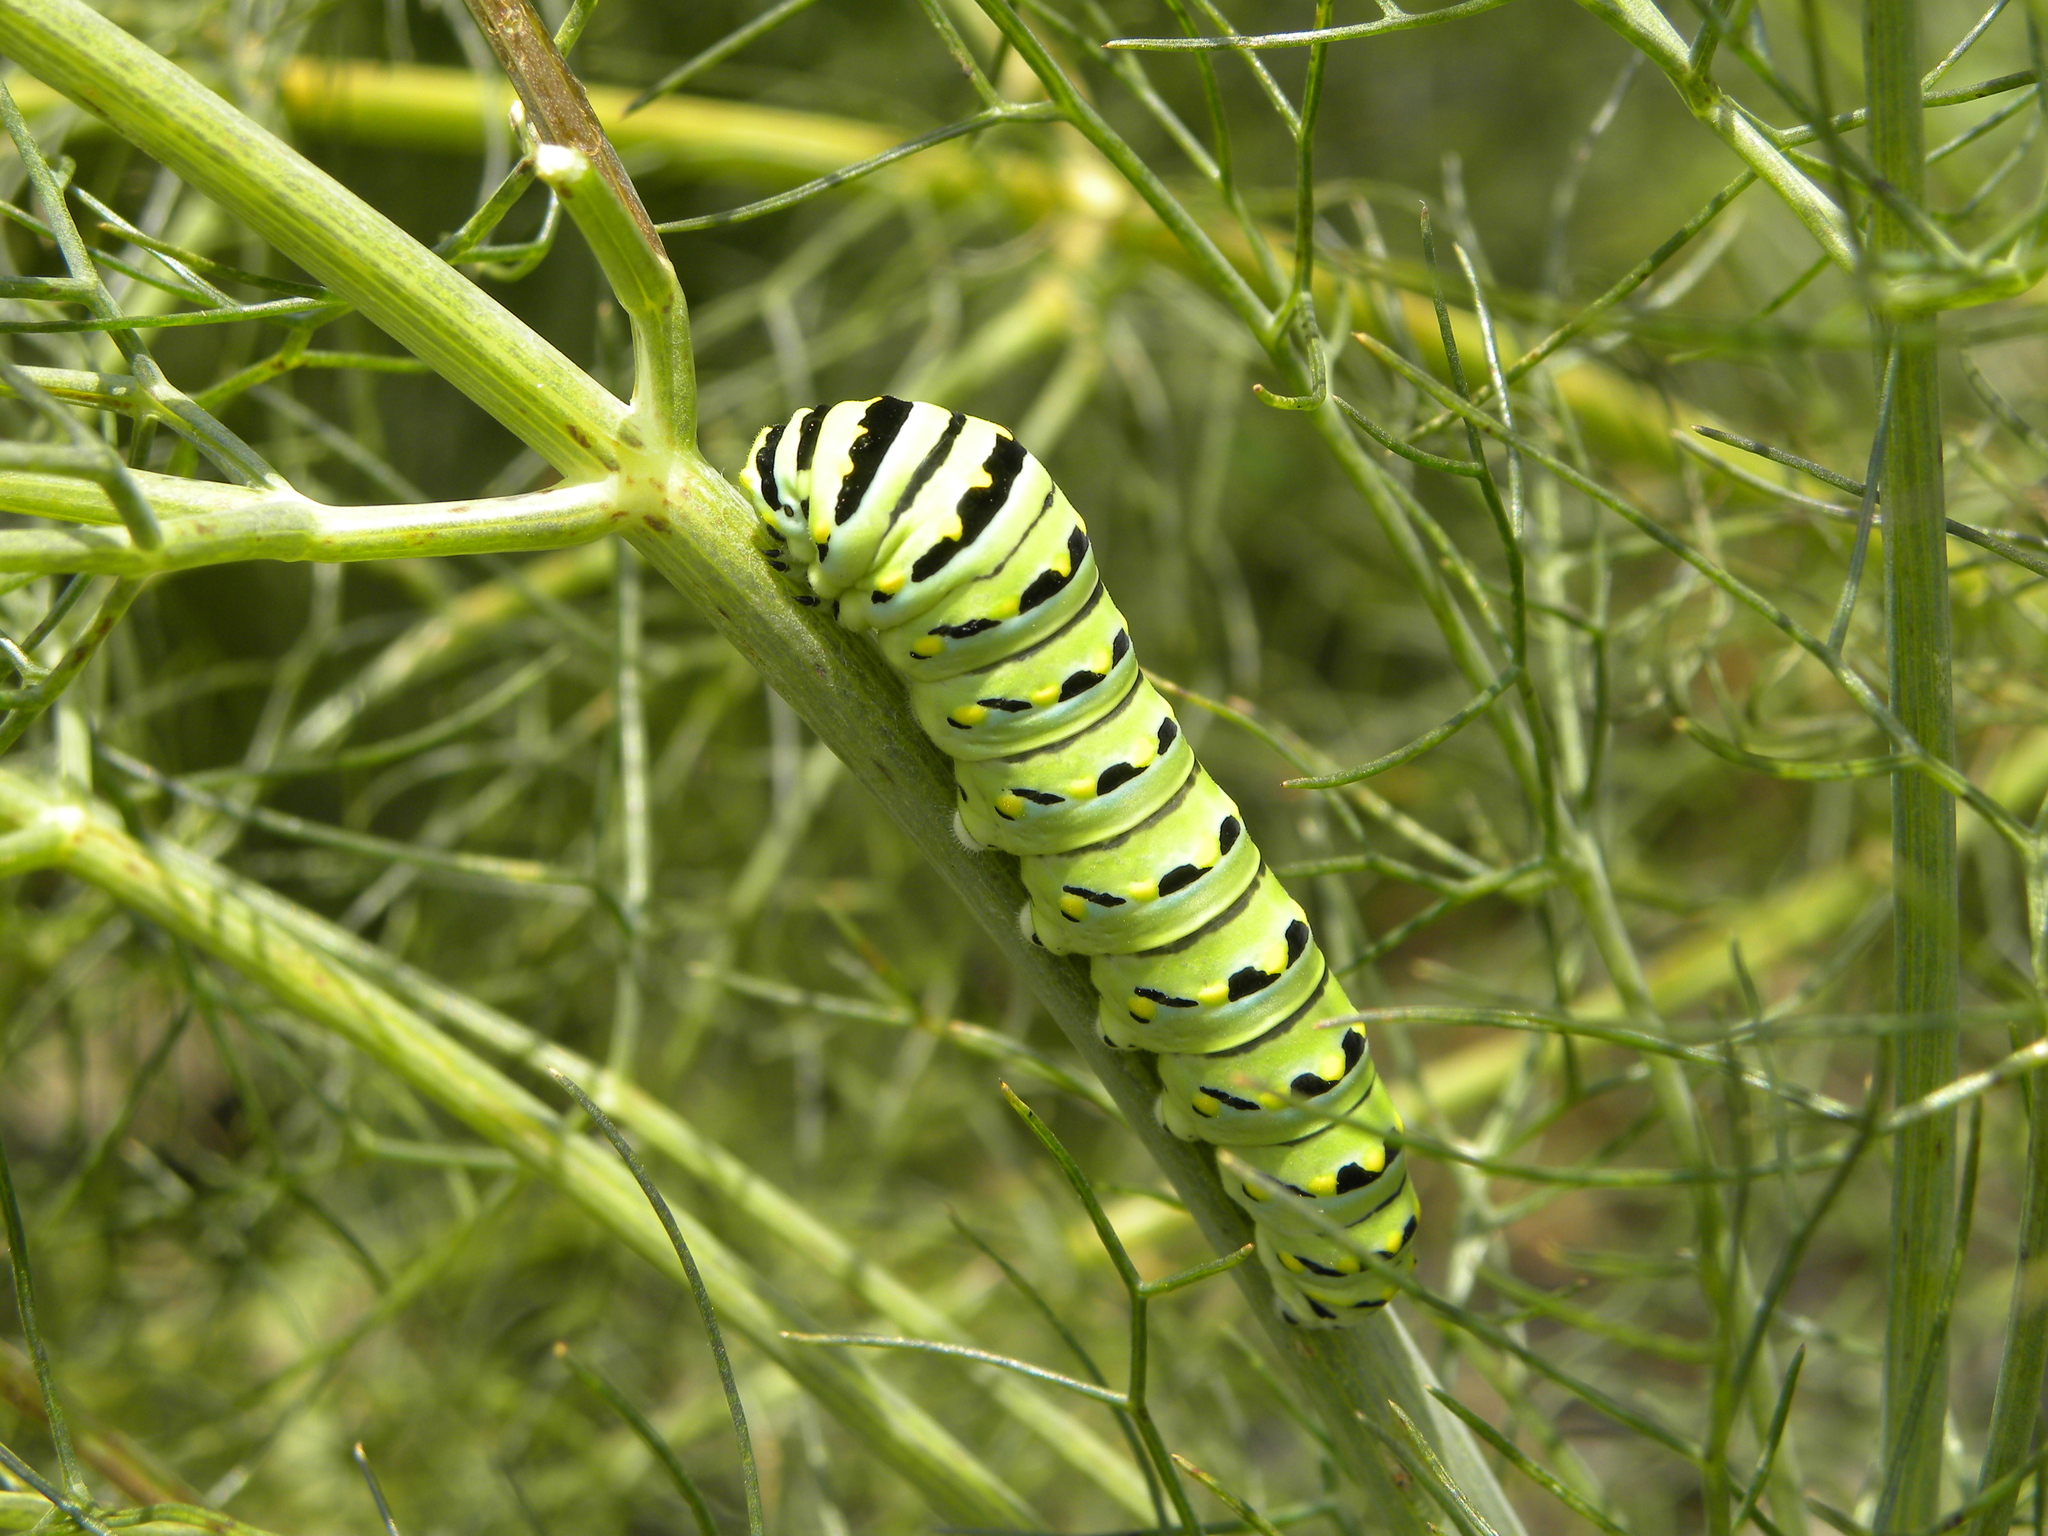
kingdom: Animalia
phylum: Arthropoda
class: Insecta
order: Lepidoptera
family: Papilionidae
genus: Papilio
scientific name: Papilio polyxenes
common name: Black swallowtail
